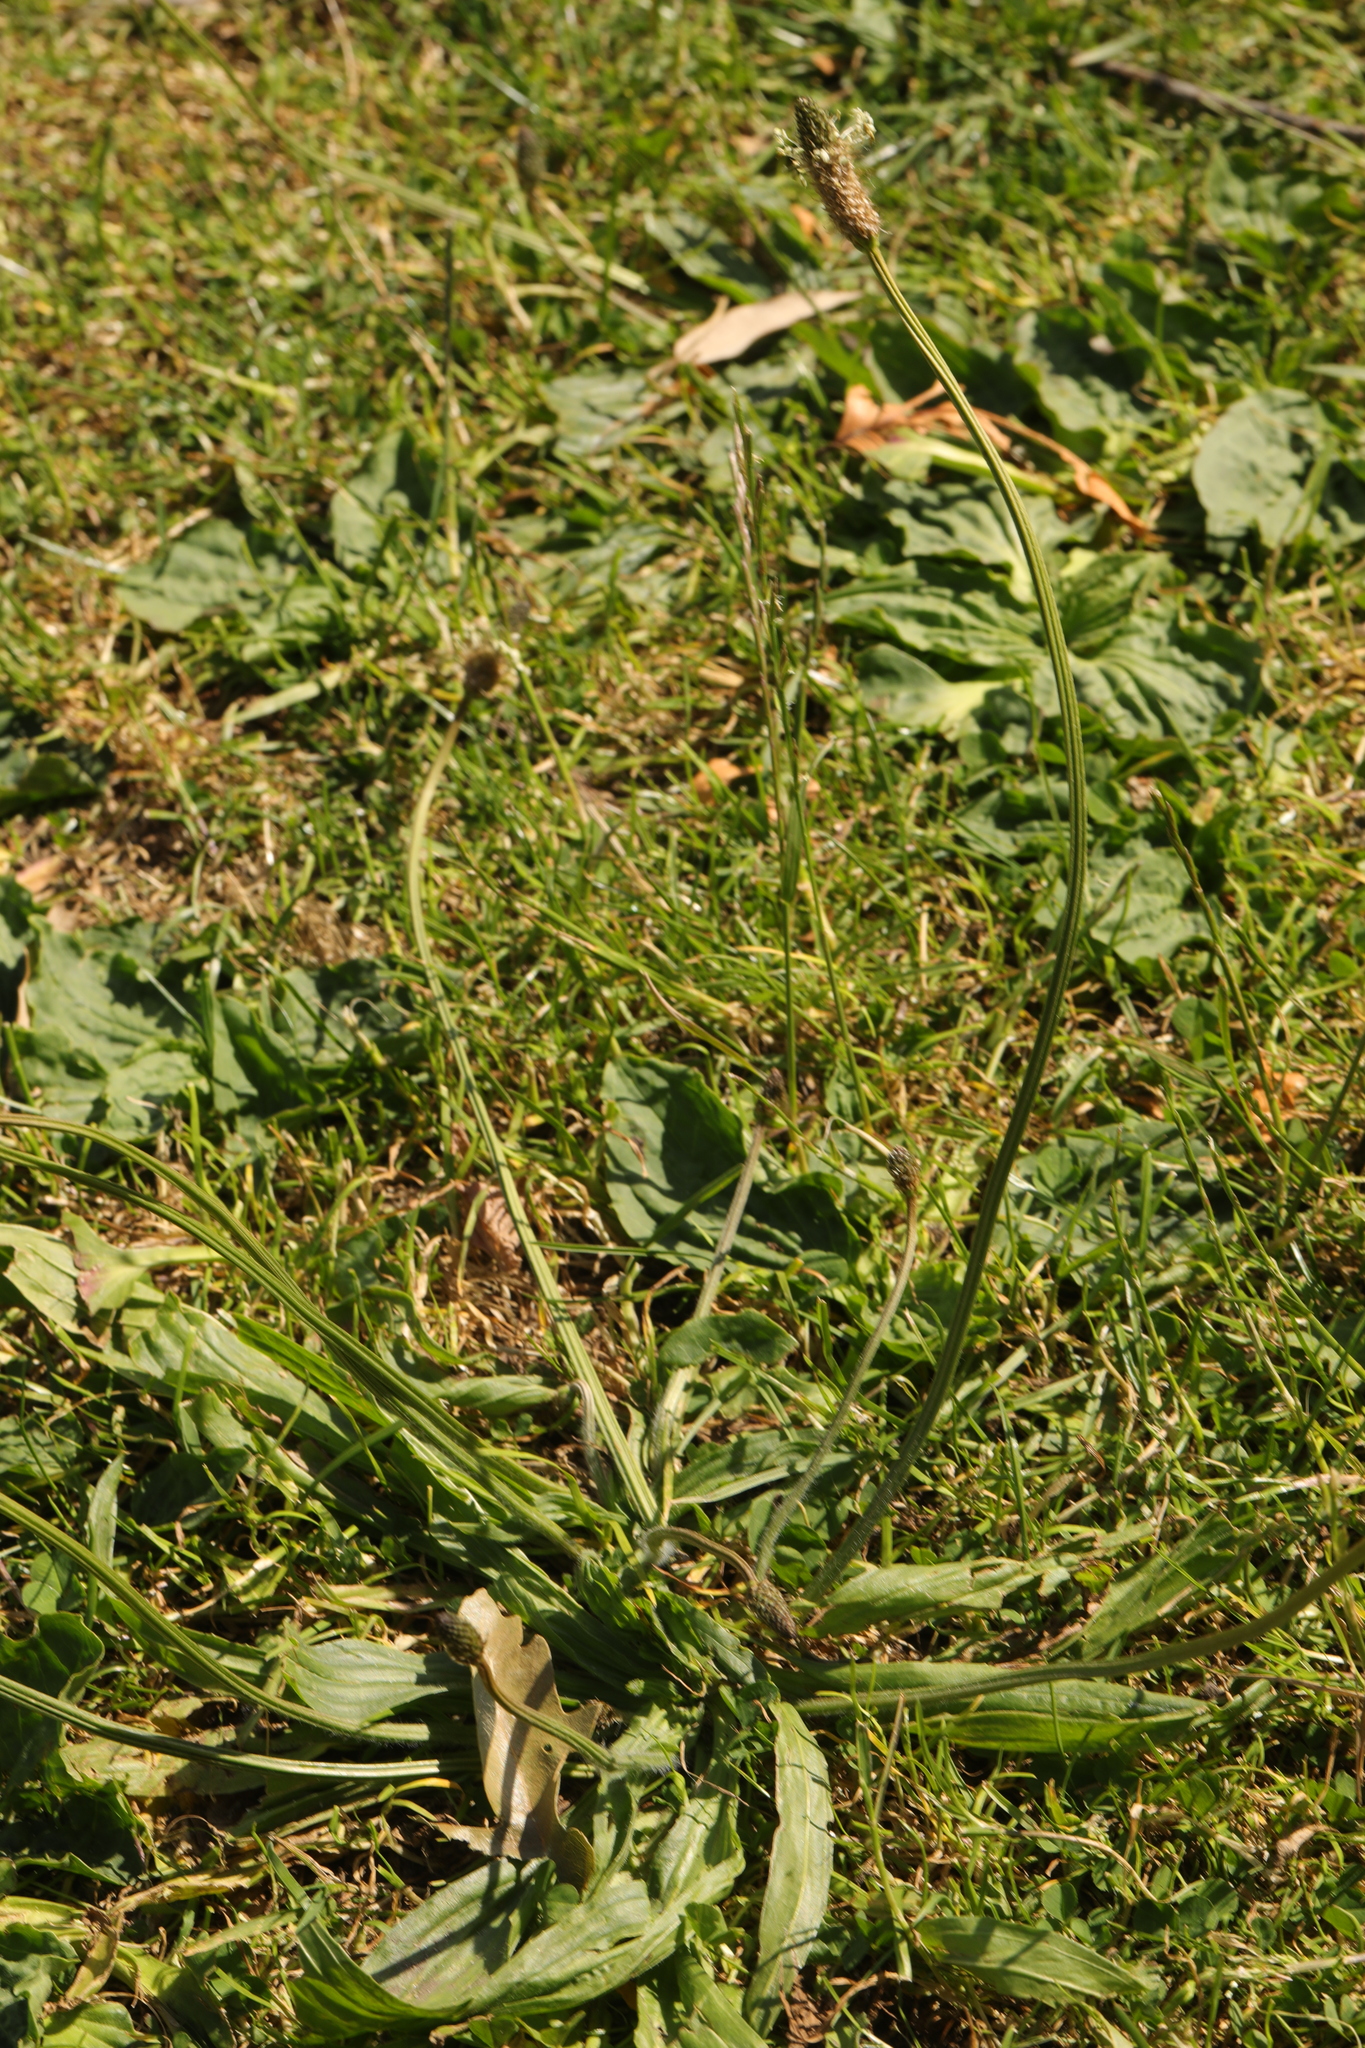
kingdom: Plantae
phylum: Tracheophyta
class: Magnoliopsida
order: Lamiales
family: Plantaginaceae
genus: Plantago
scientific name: Plantago lanceolata
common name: Ribwort plantain
